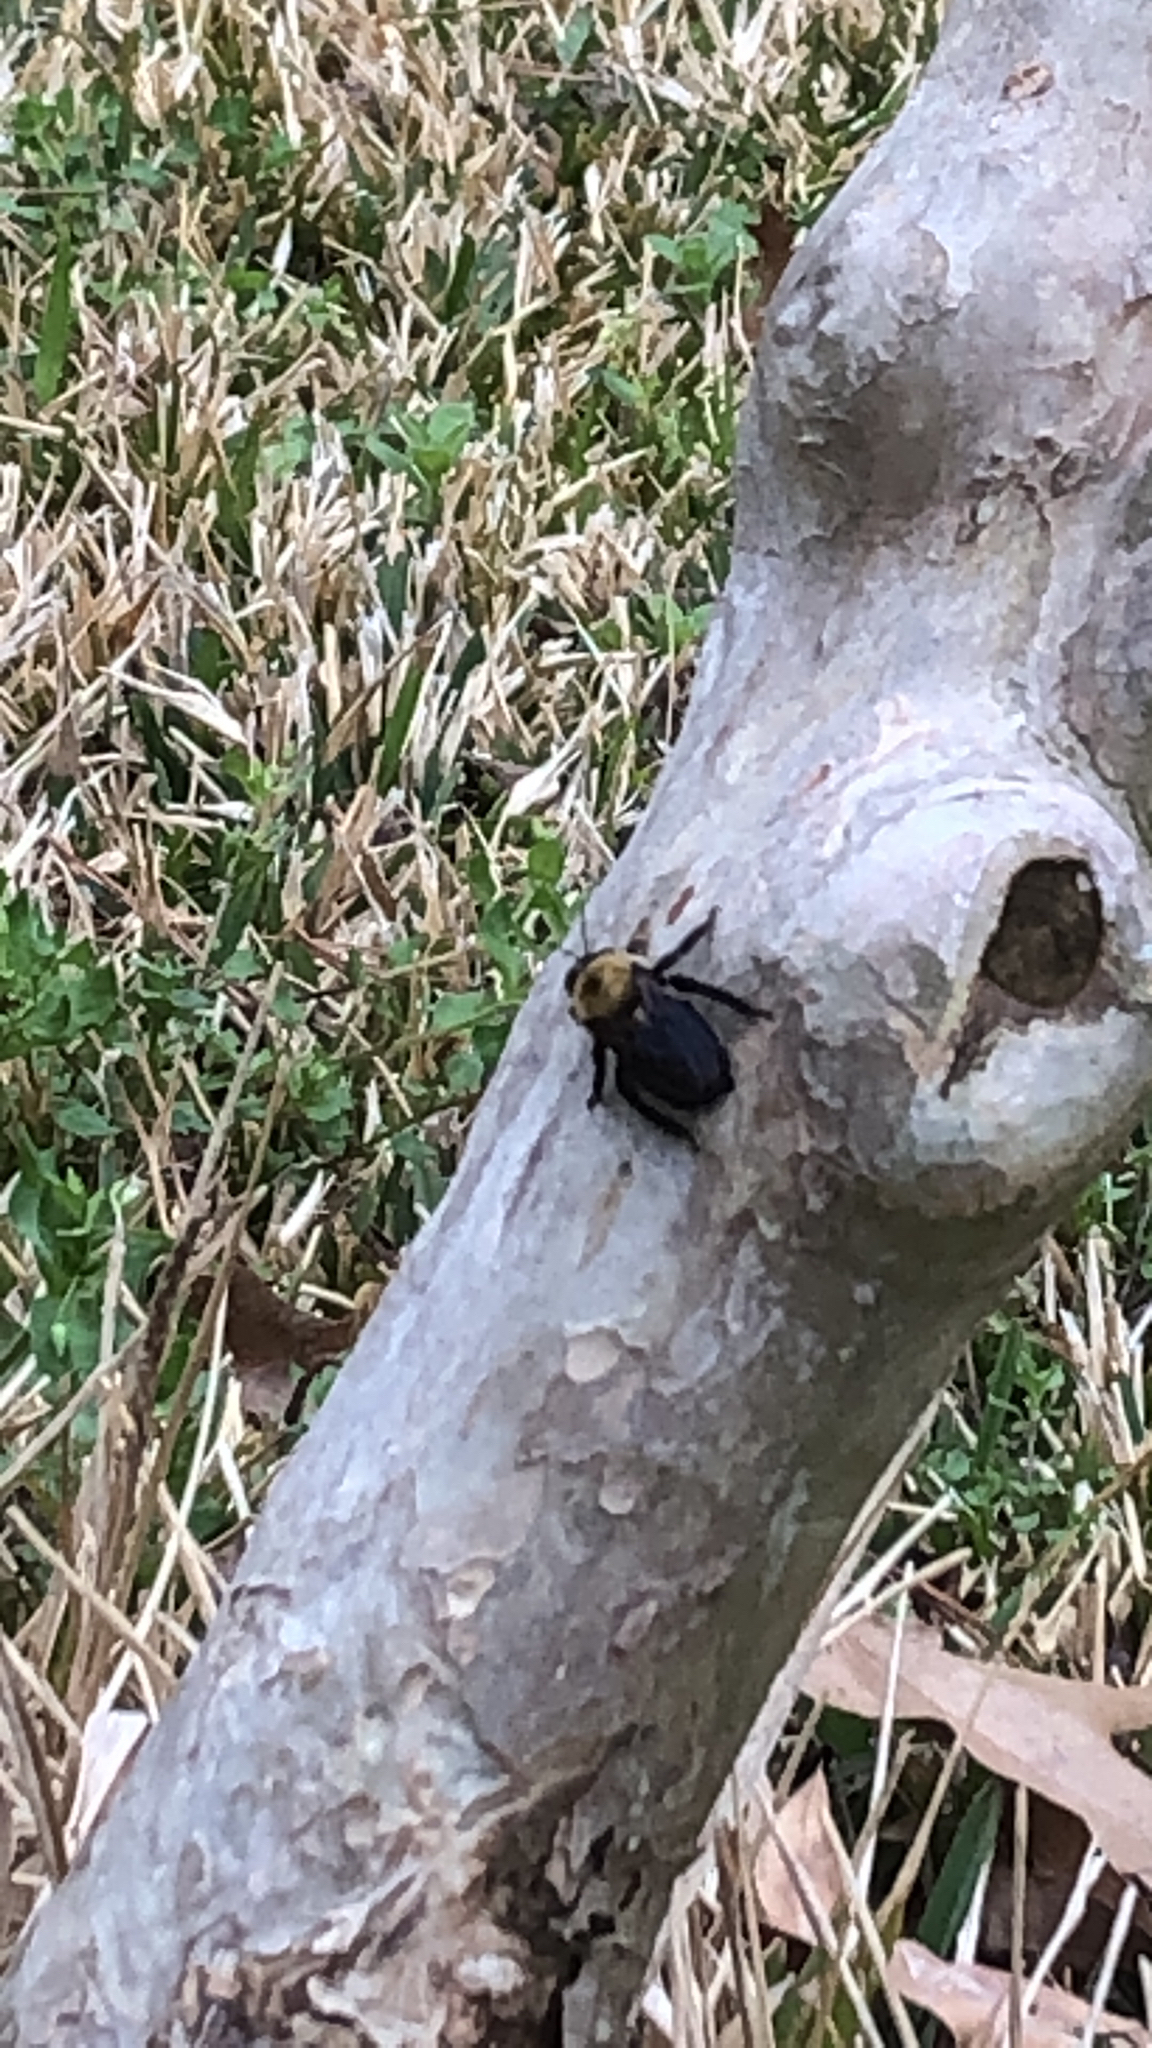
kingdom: Animalia
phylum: Arthropoda
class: Insecta
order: Hymenoptera
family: Apidae
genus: Xylocopa
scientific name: Xylocopa virginica
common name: Carpenter bee
